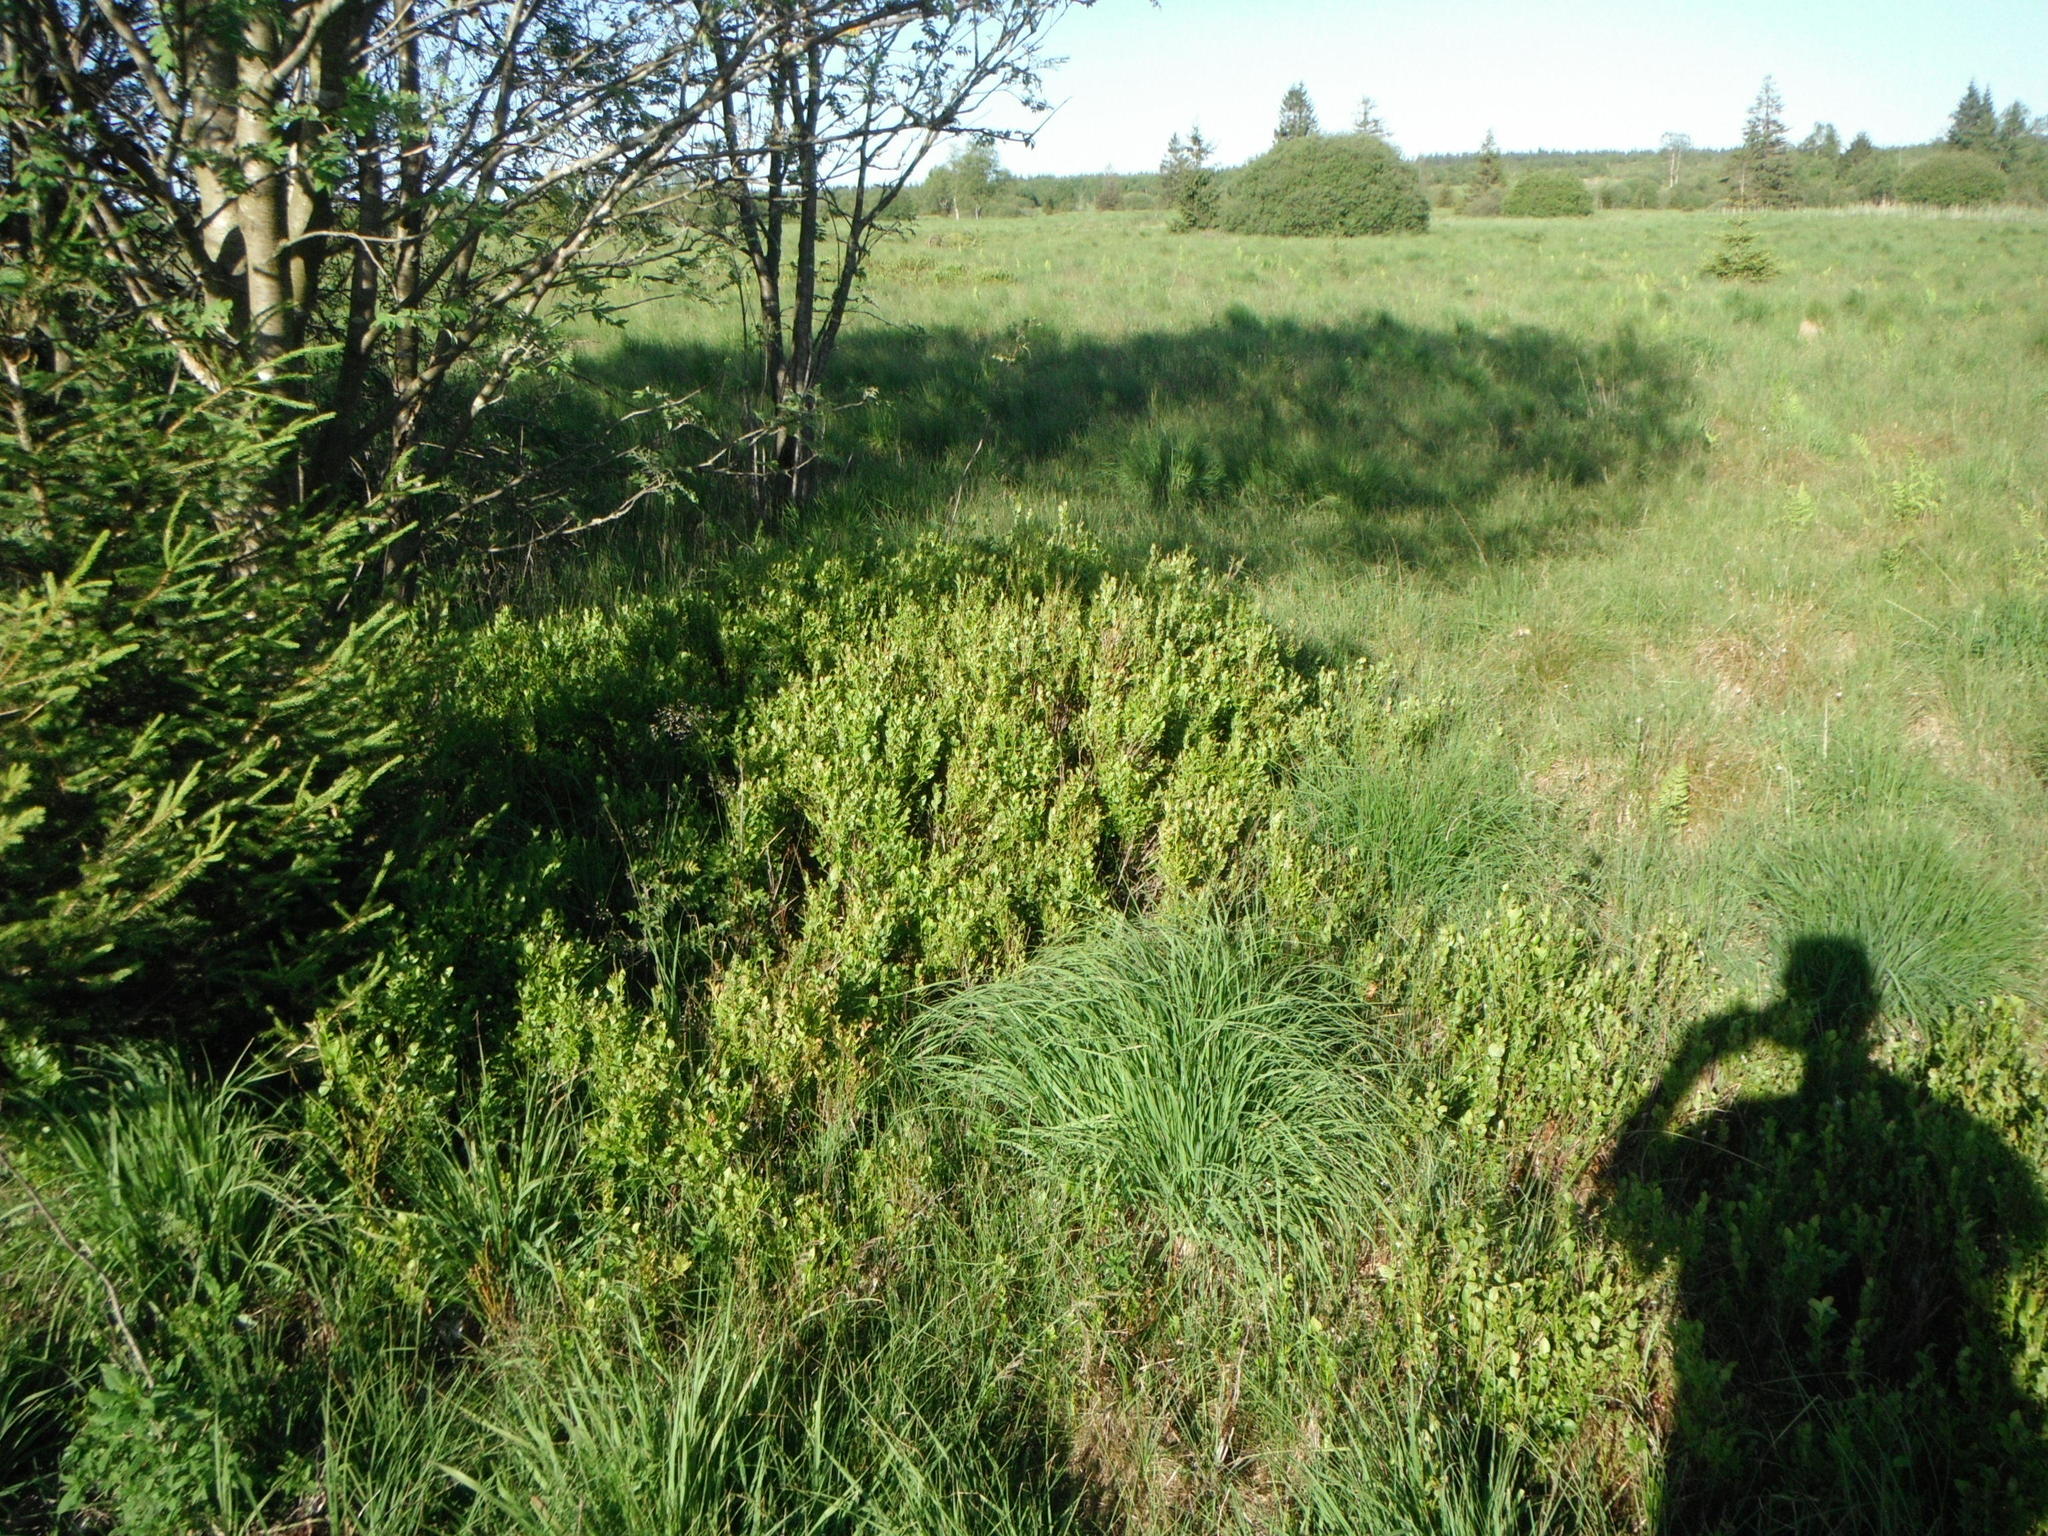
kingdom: Plantae
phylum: Tracheophyta
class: Magnoliopsida
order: Ericales
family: Ericaceae
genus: Vaccinium
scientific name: Vaccinium myrtillus
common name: Bilberry
